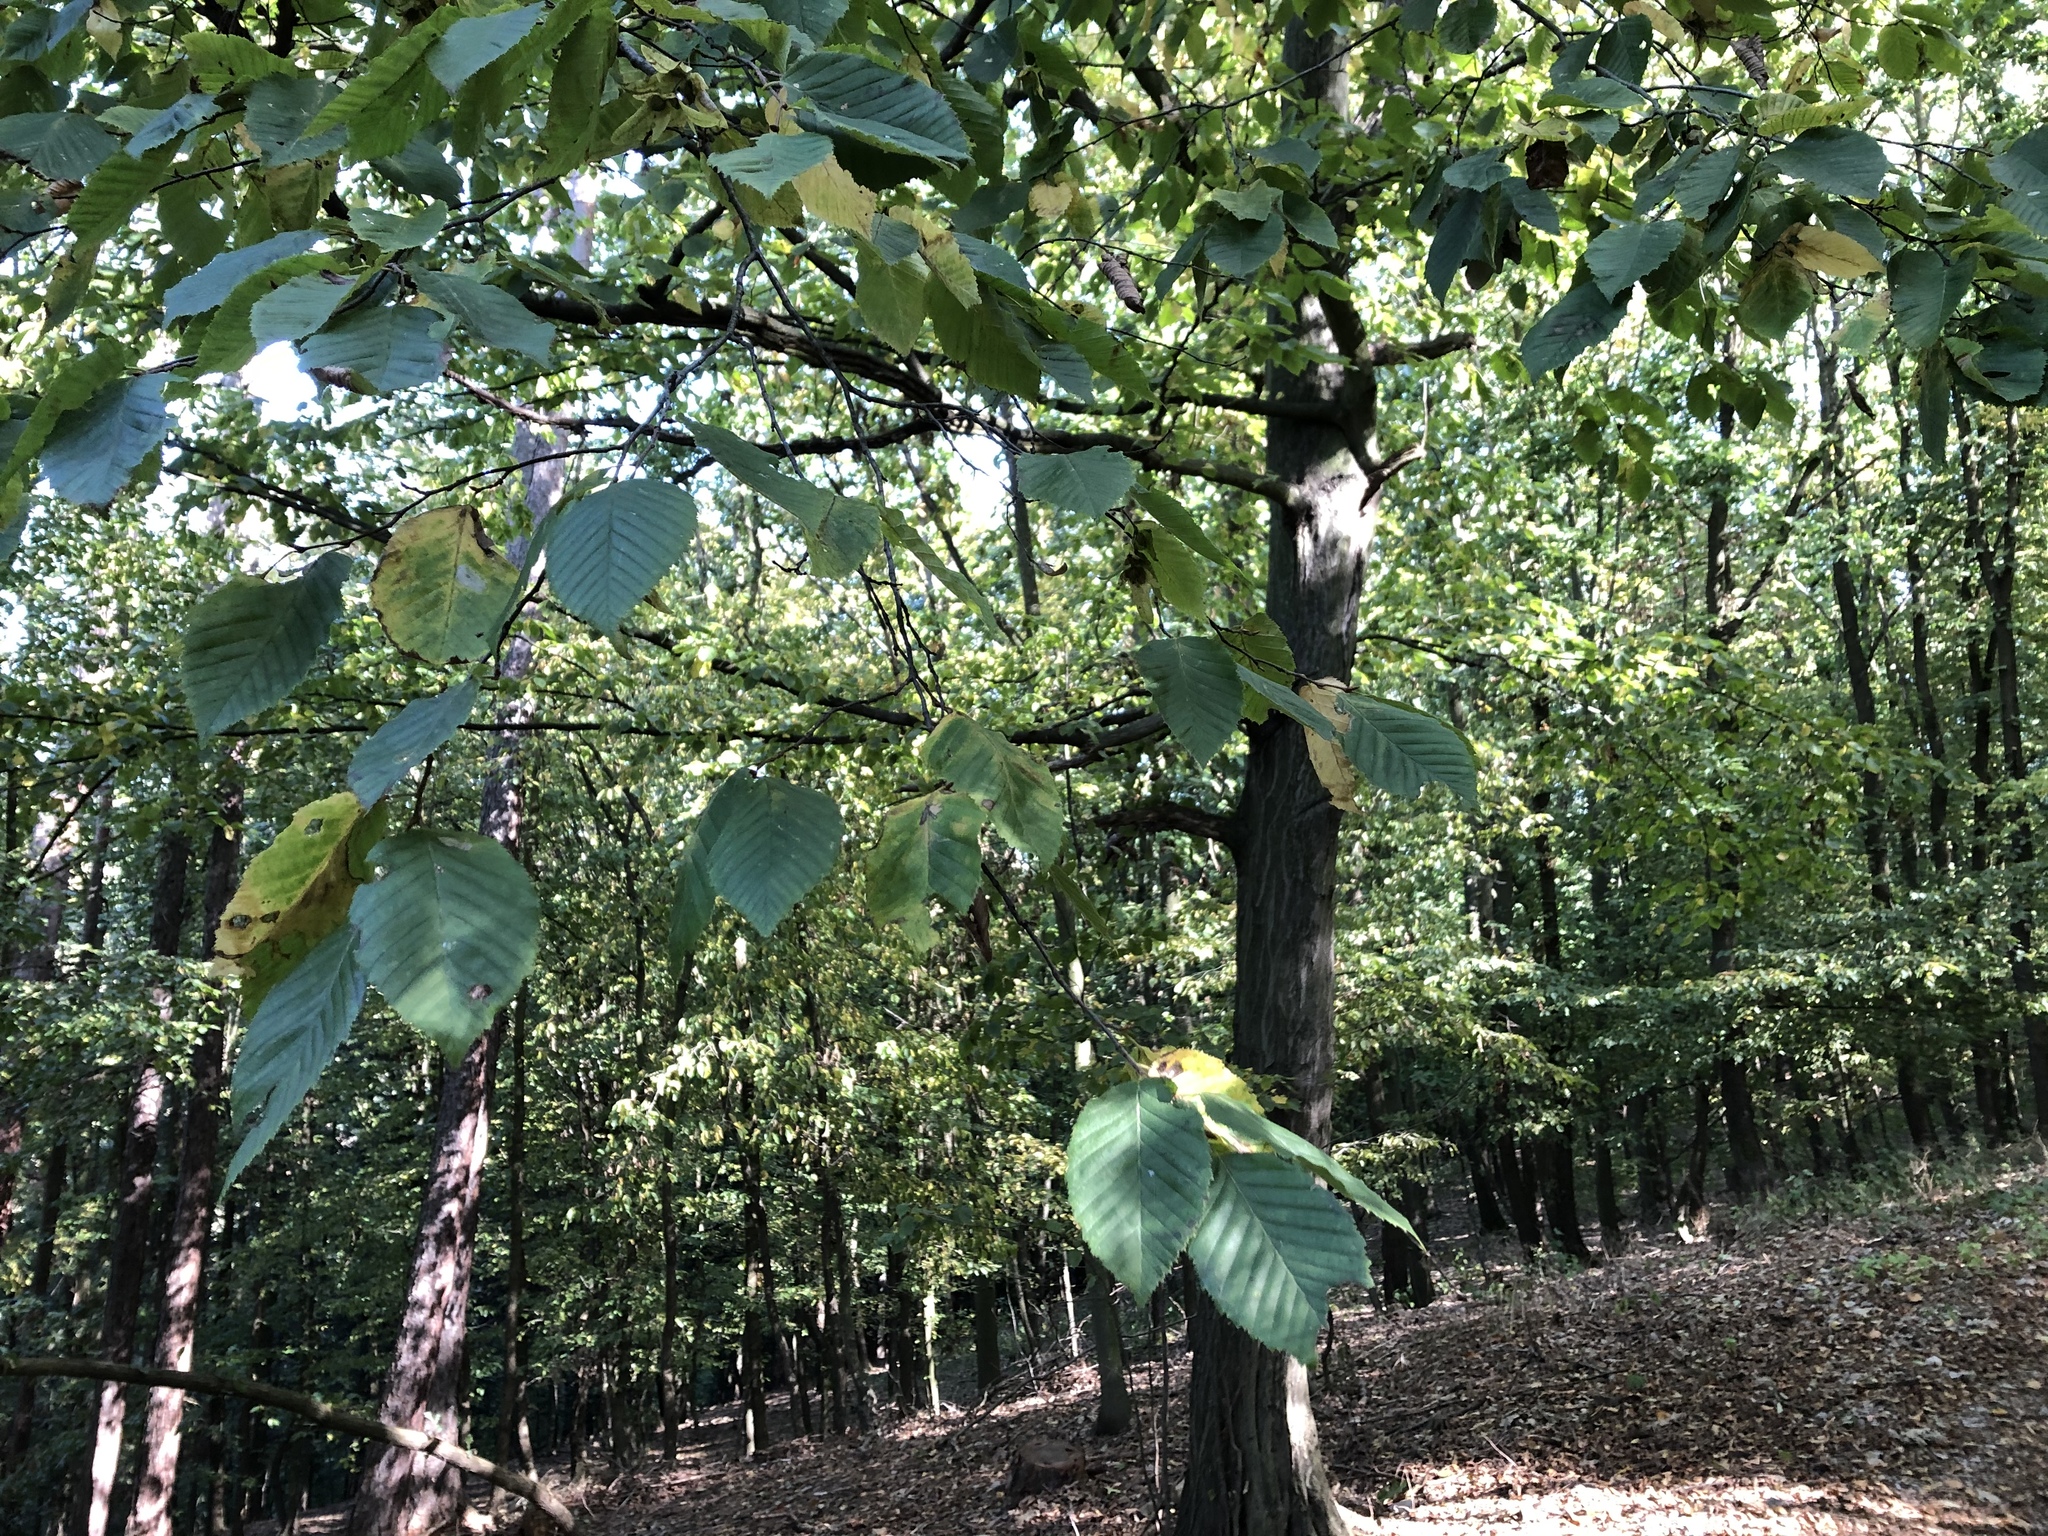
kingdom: Plantae
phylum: Tracheophyta
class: Magnoliopsida
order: Fagales
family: Betulaceae
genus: Carpinus
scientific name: Carpinus betulus
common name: Hornbeam
